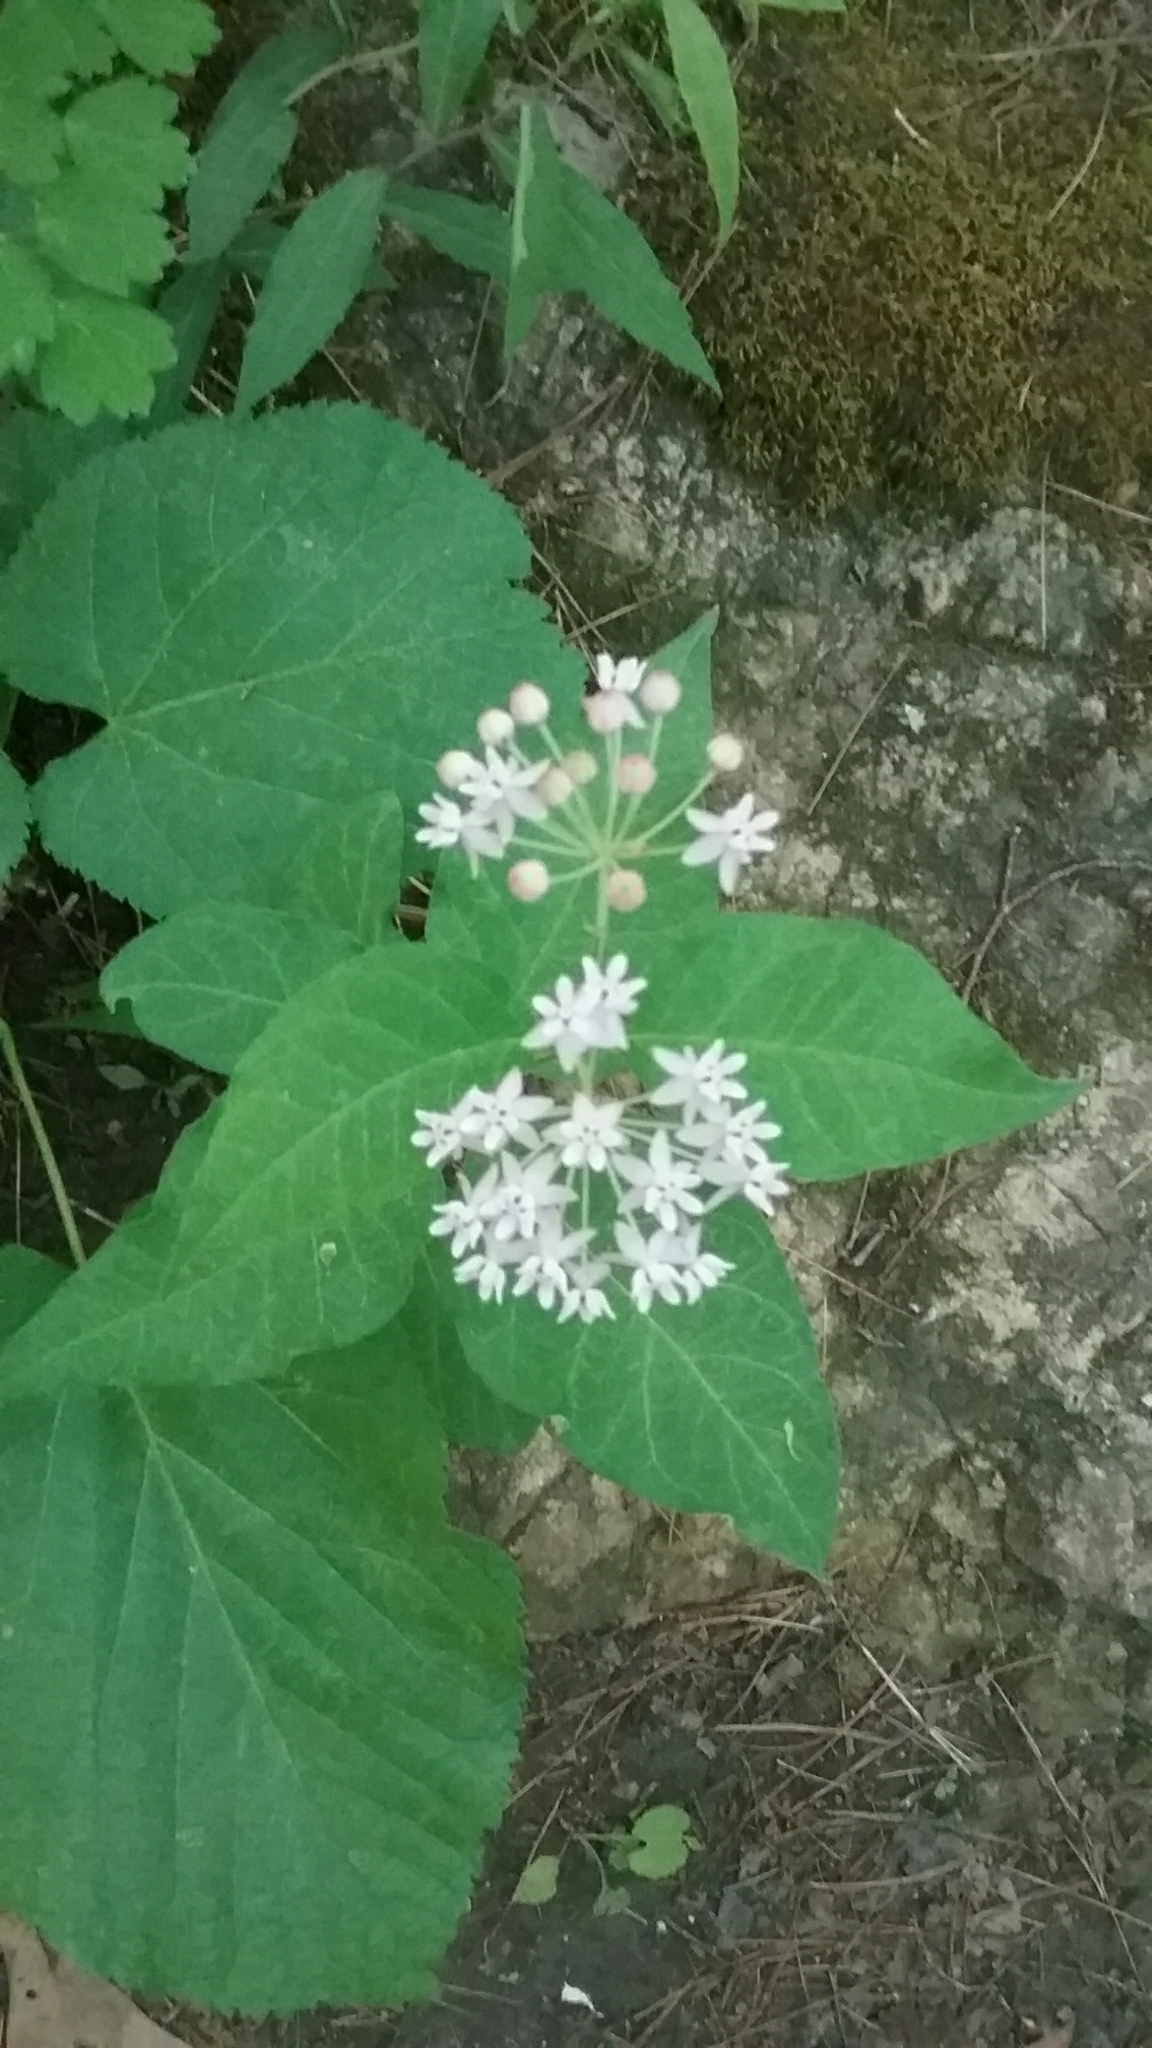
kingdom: Plantae
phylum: Tracheophyta
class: Magnoliopsida
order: Gentianales
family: Apocynaceae
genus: Asclepias
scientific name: Asclepias quadrifolia
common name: Whorled milkweed
